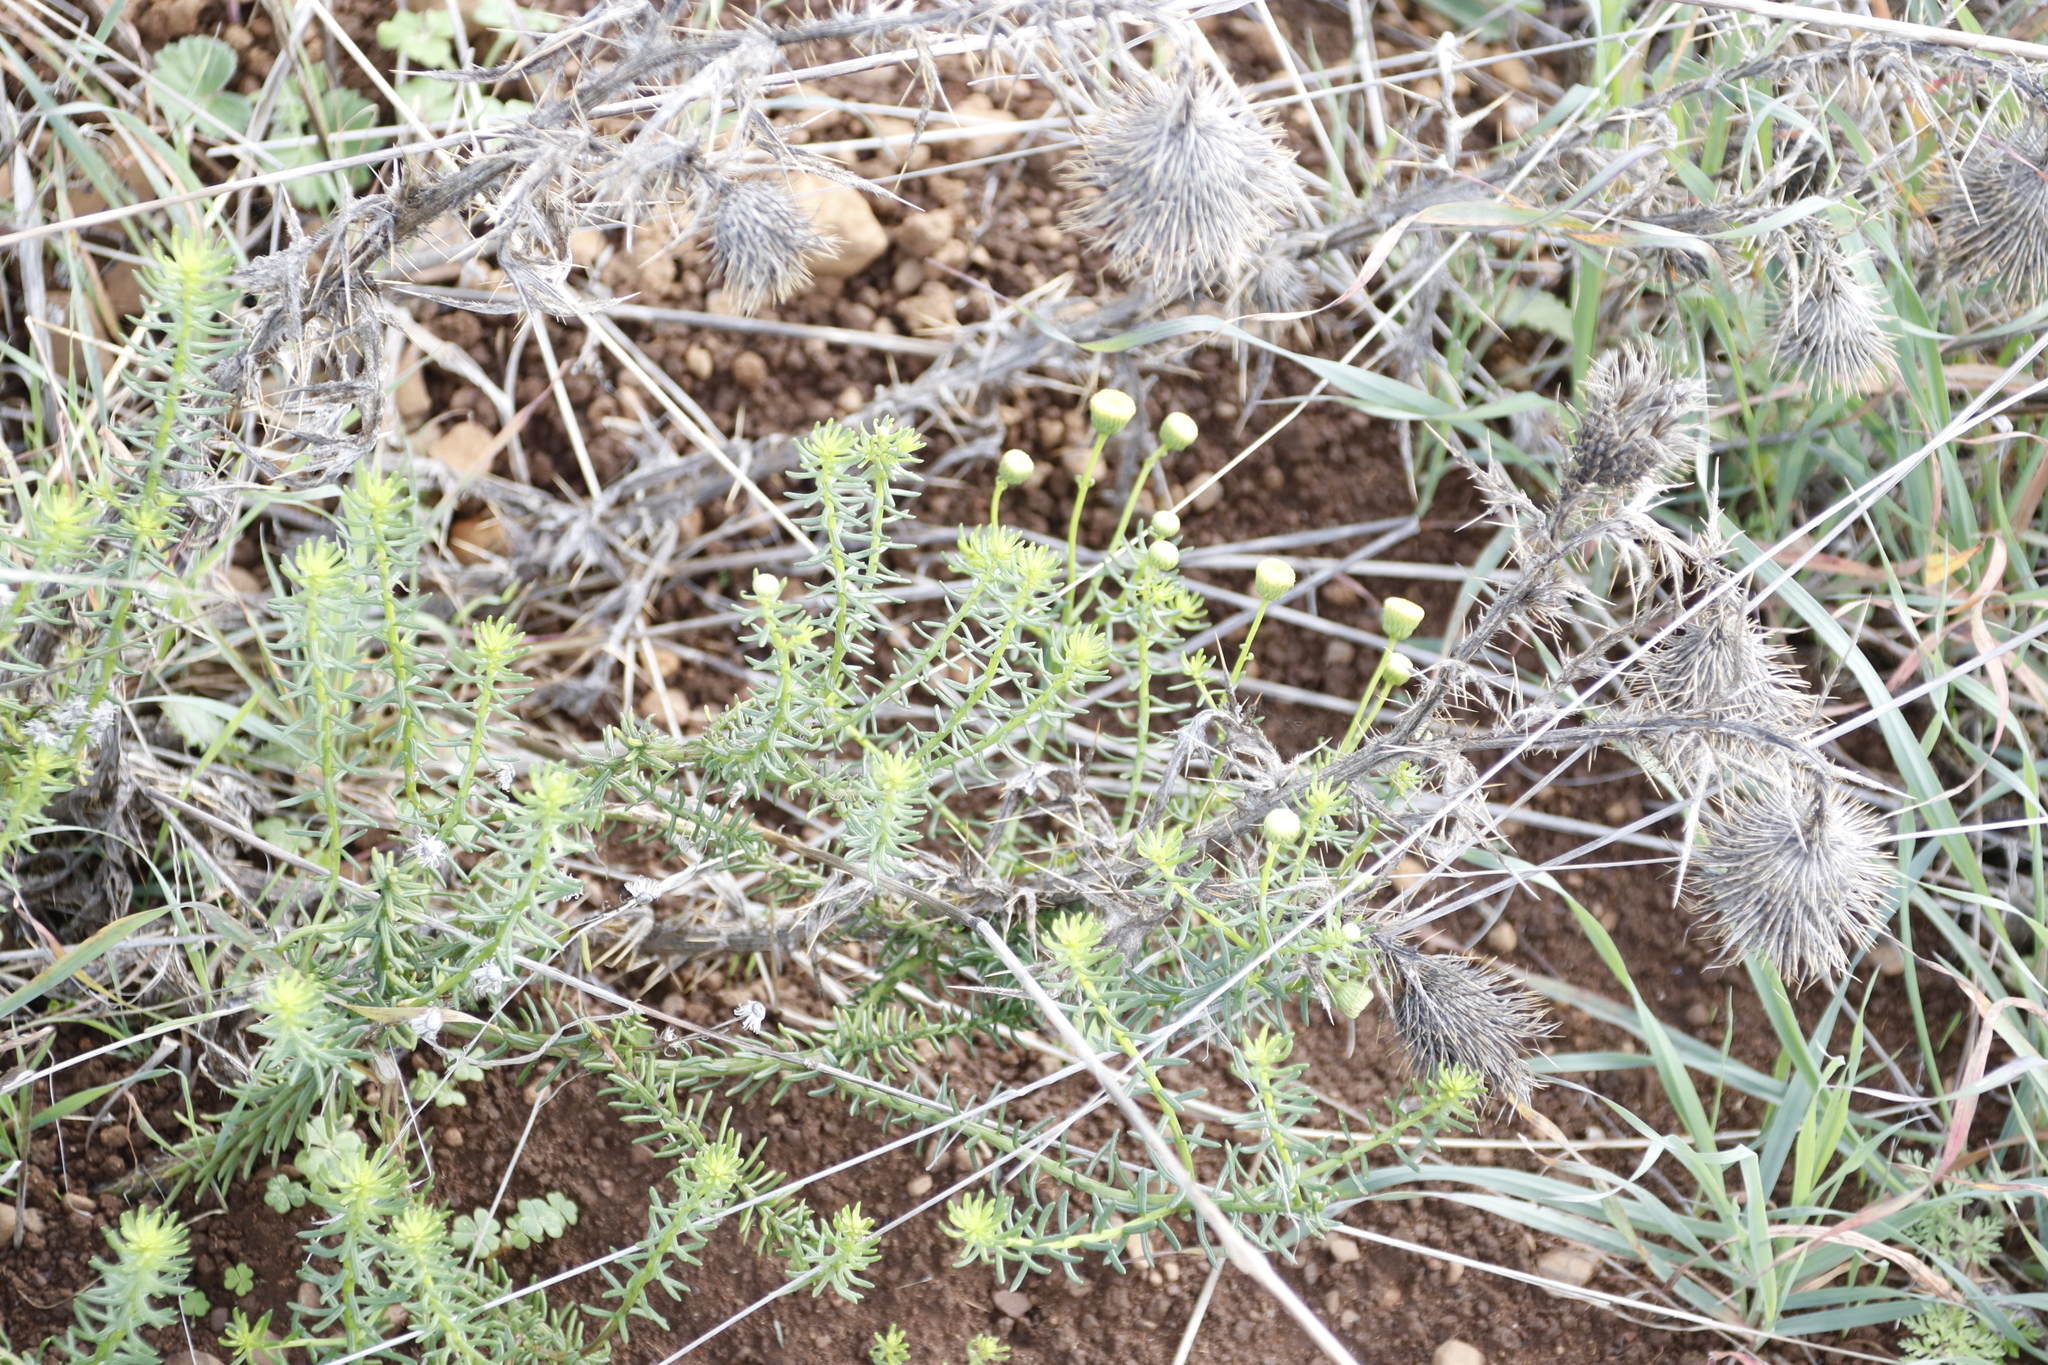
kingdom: Plantae
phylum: Tracheophyta
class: Magnoliopsida
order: Asterales
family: Asteraceae
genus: Chrysocoma
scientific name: Chrysocoma cernua
